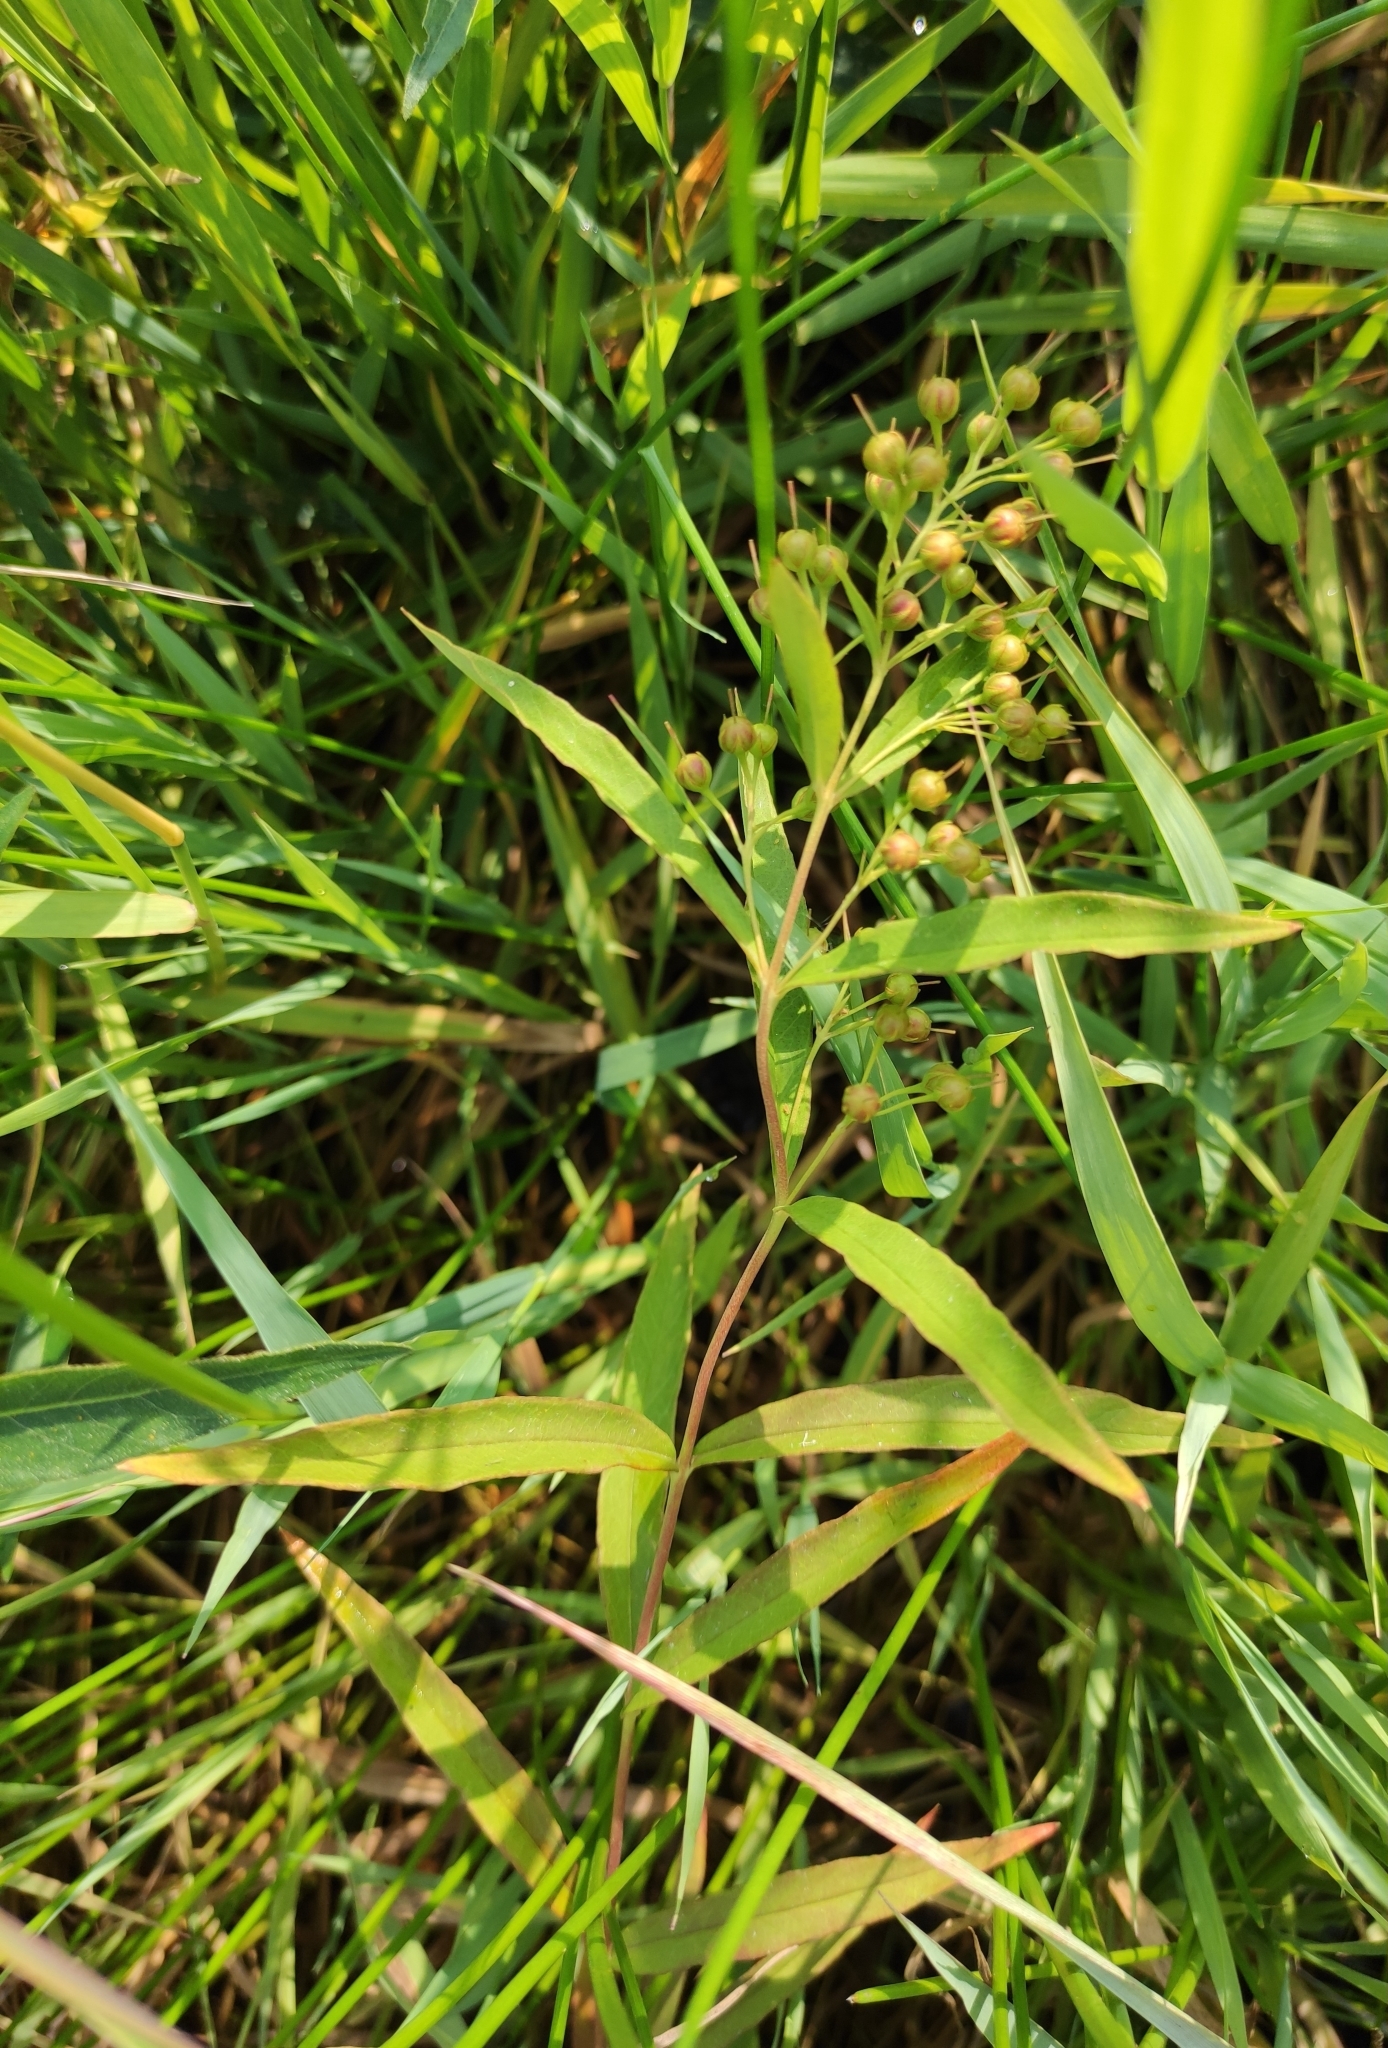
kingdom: Plantae
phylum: Tracheophyta
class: Magnoliopsida
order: Ericales
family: Primulaceae
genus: Lysimachia
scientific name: Lysimachia davurica
